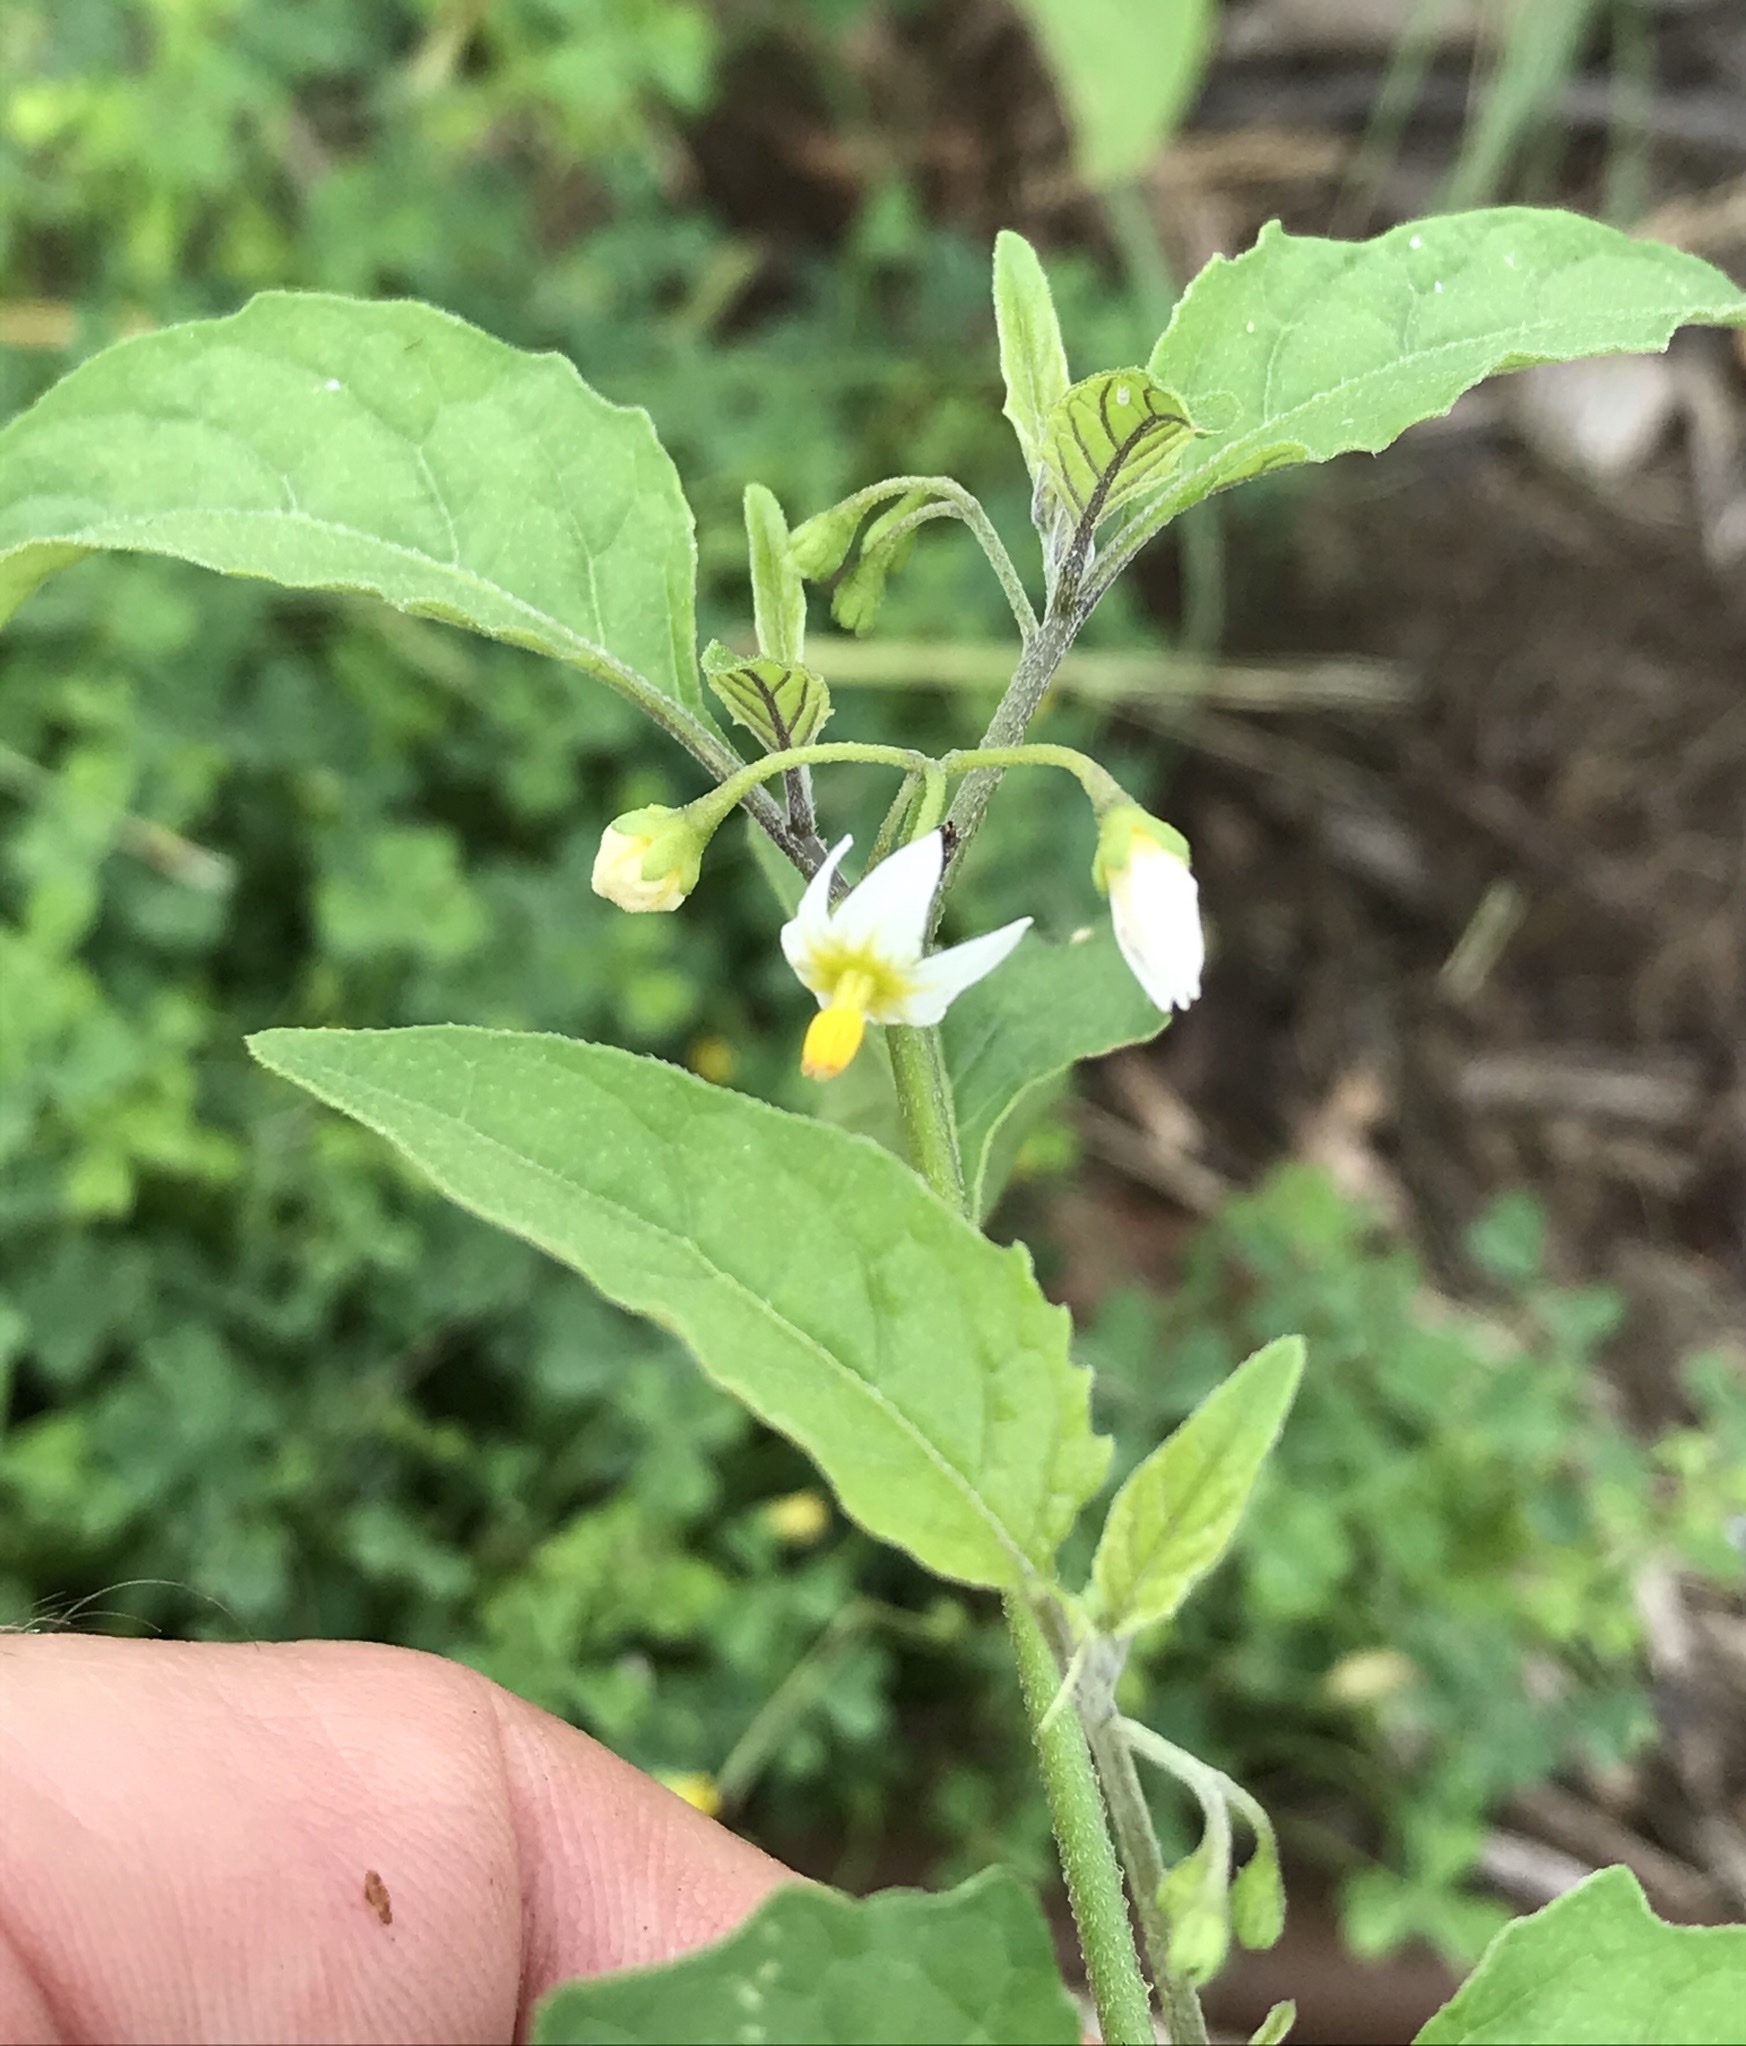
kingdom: Plantae
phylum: Tracheophyta
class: Magnoliopsida
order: Solanales
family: Solanaceae
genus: Solanum
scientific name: Solanum emulans
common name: Eastern black nightshade
